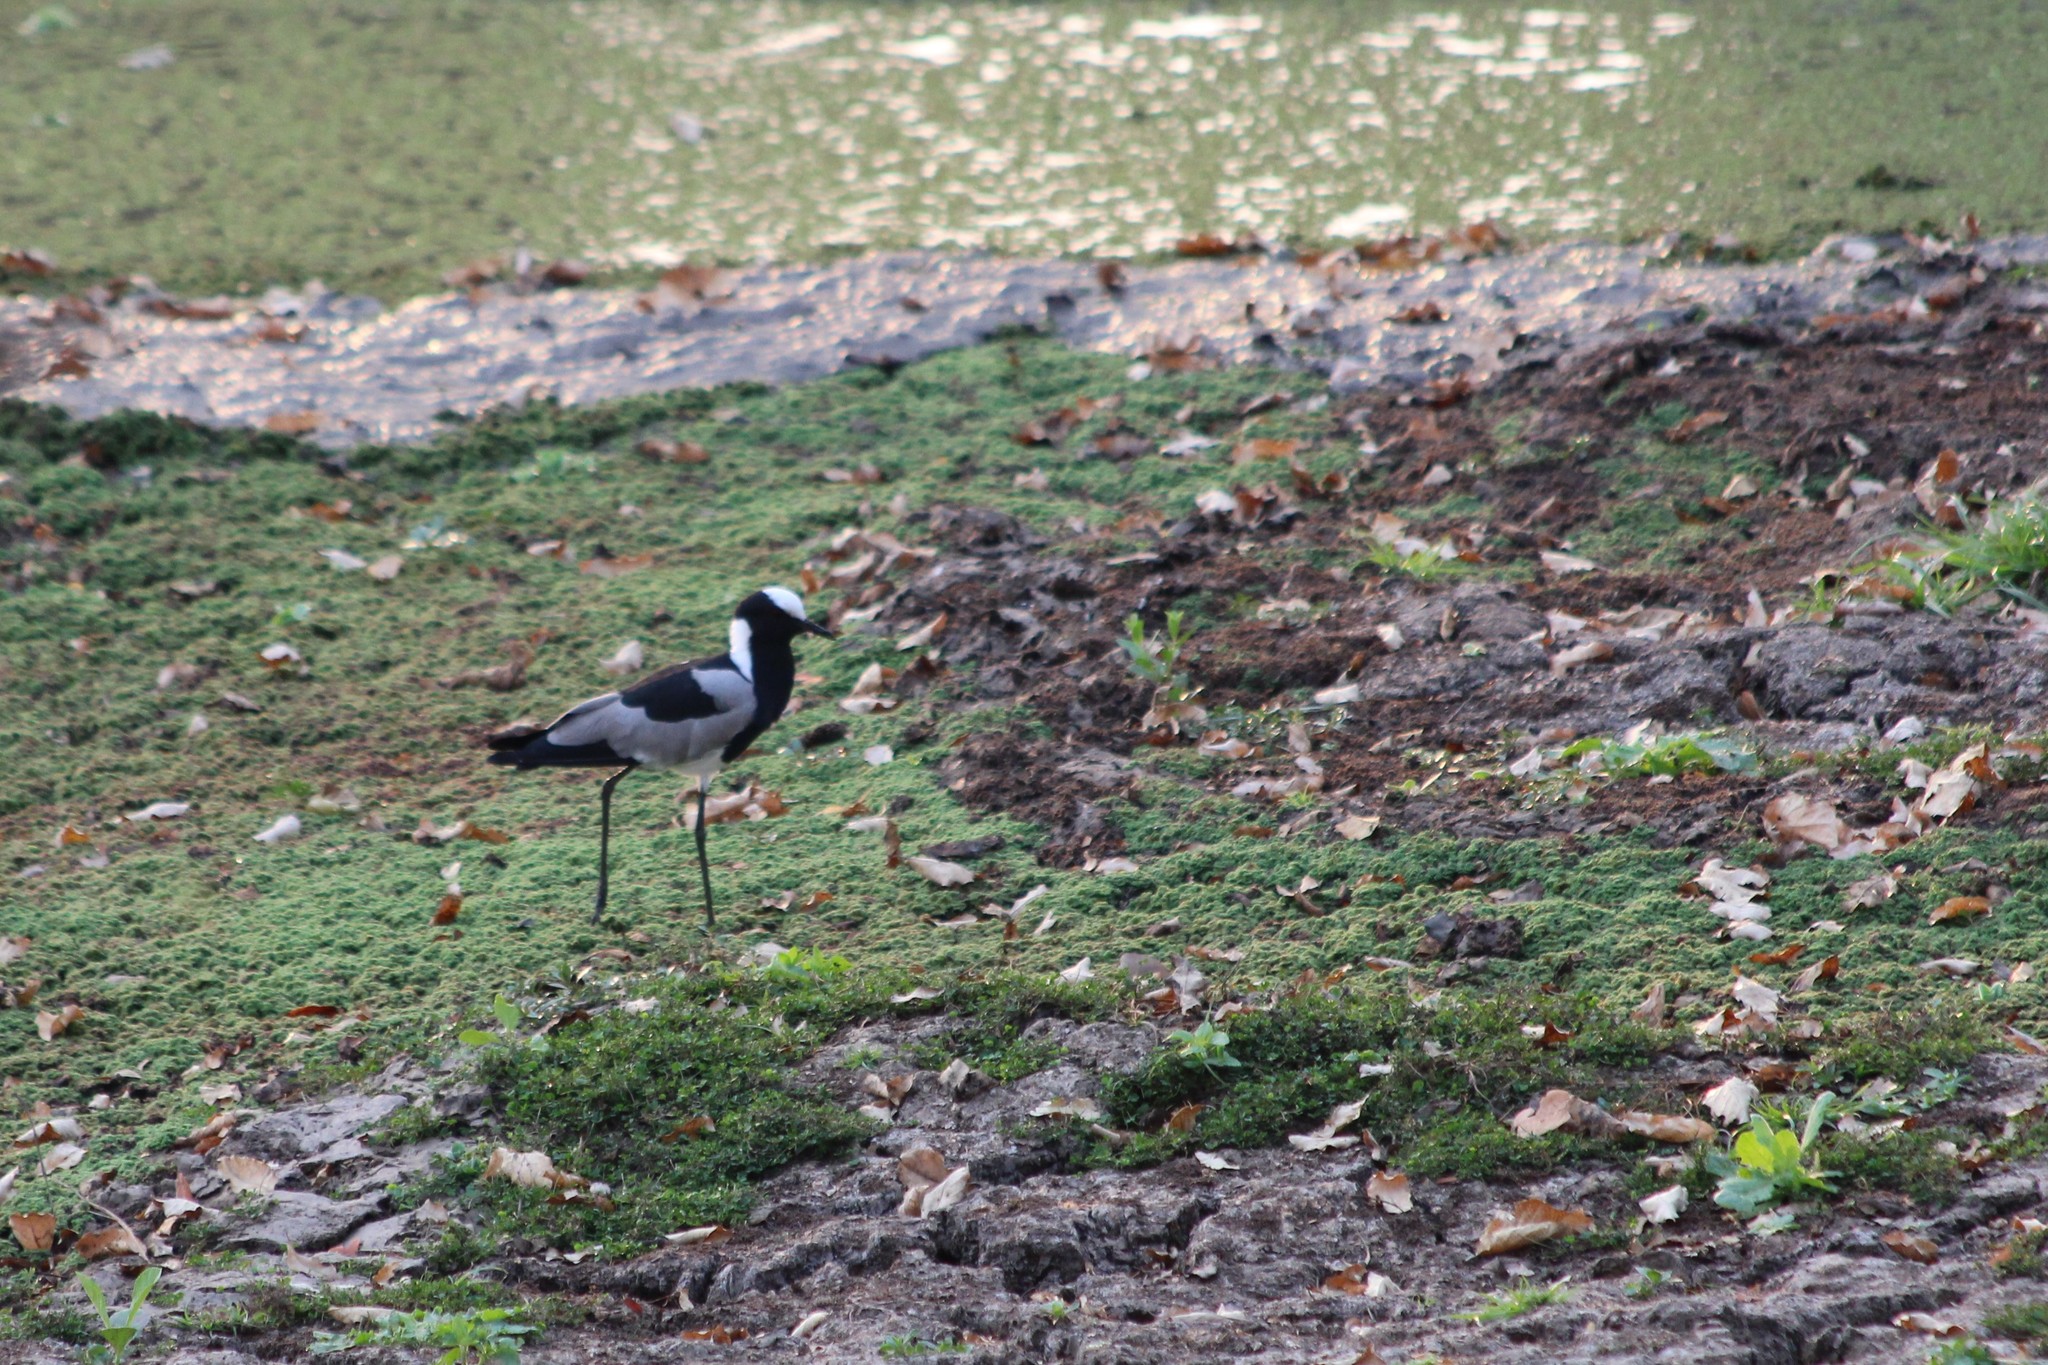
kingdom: Animalia
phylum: Chordata
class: Aves
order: Charadriiformes
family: Charadriidae
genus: Vanellus
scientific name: Vanellus armatus
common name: Blacksmith lapwing
